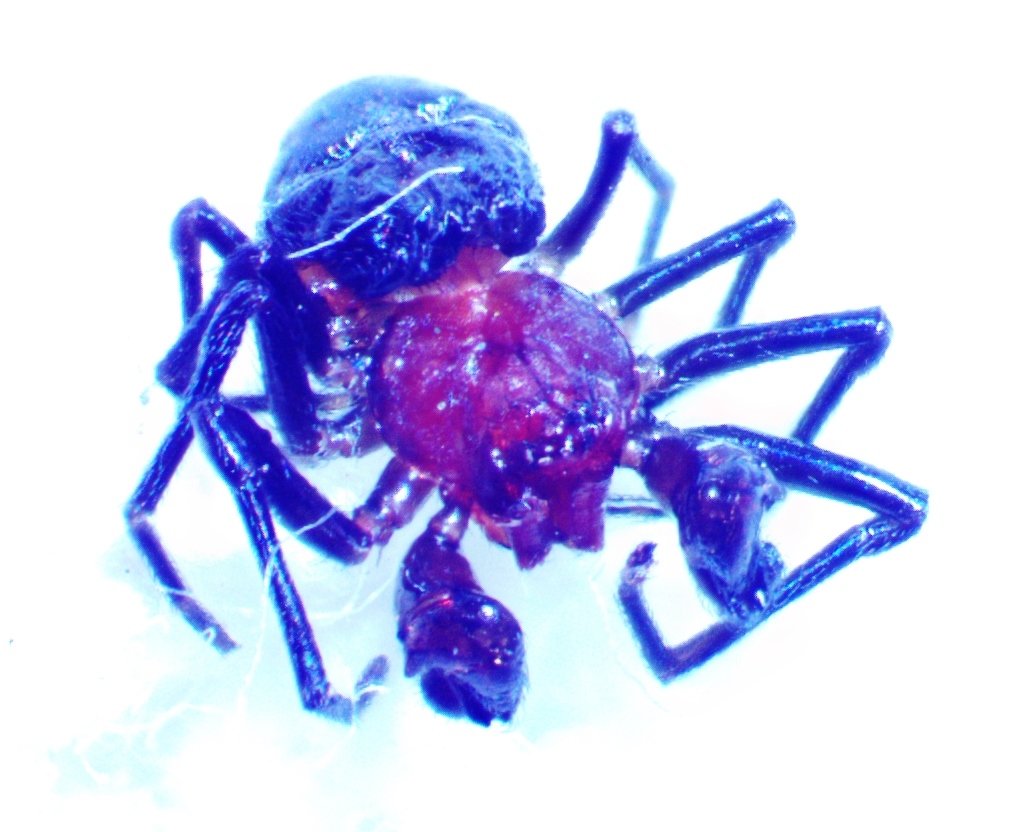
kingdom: Animalia
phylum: Arthropoda
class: Arachnida
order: Araneae
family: Dictynidae
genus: Thallumetus
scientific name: Thallumetus pineus
